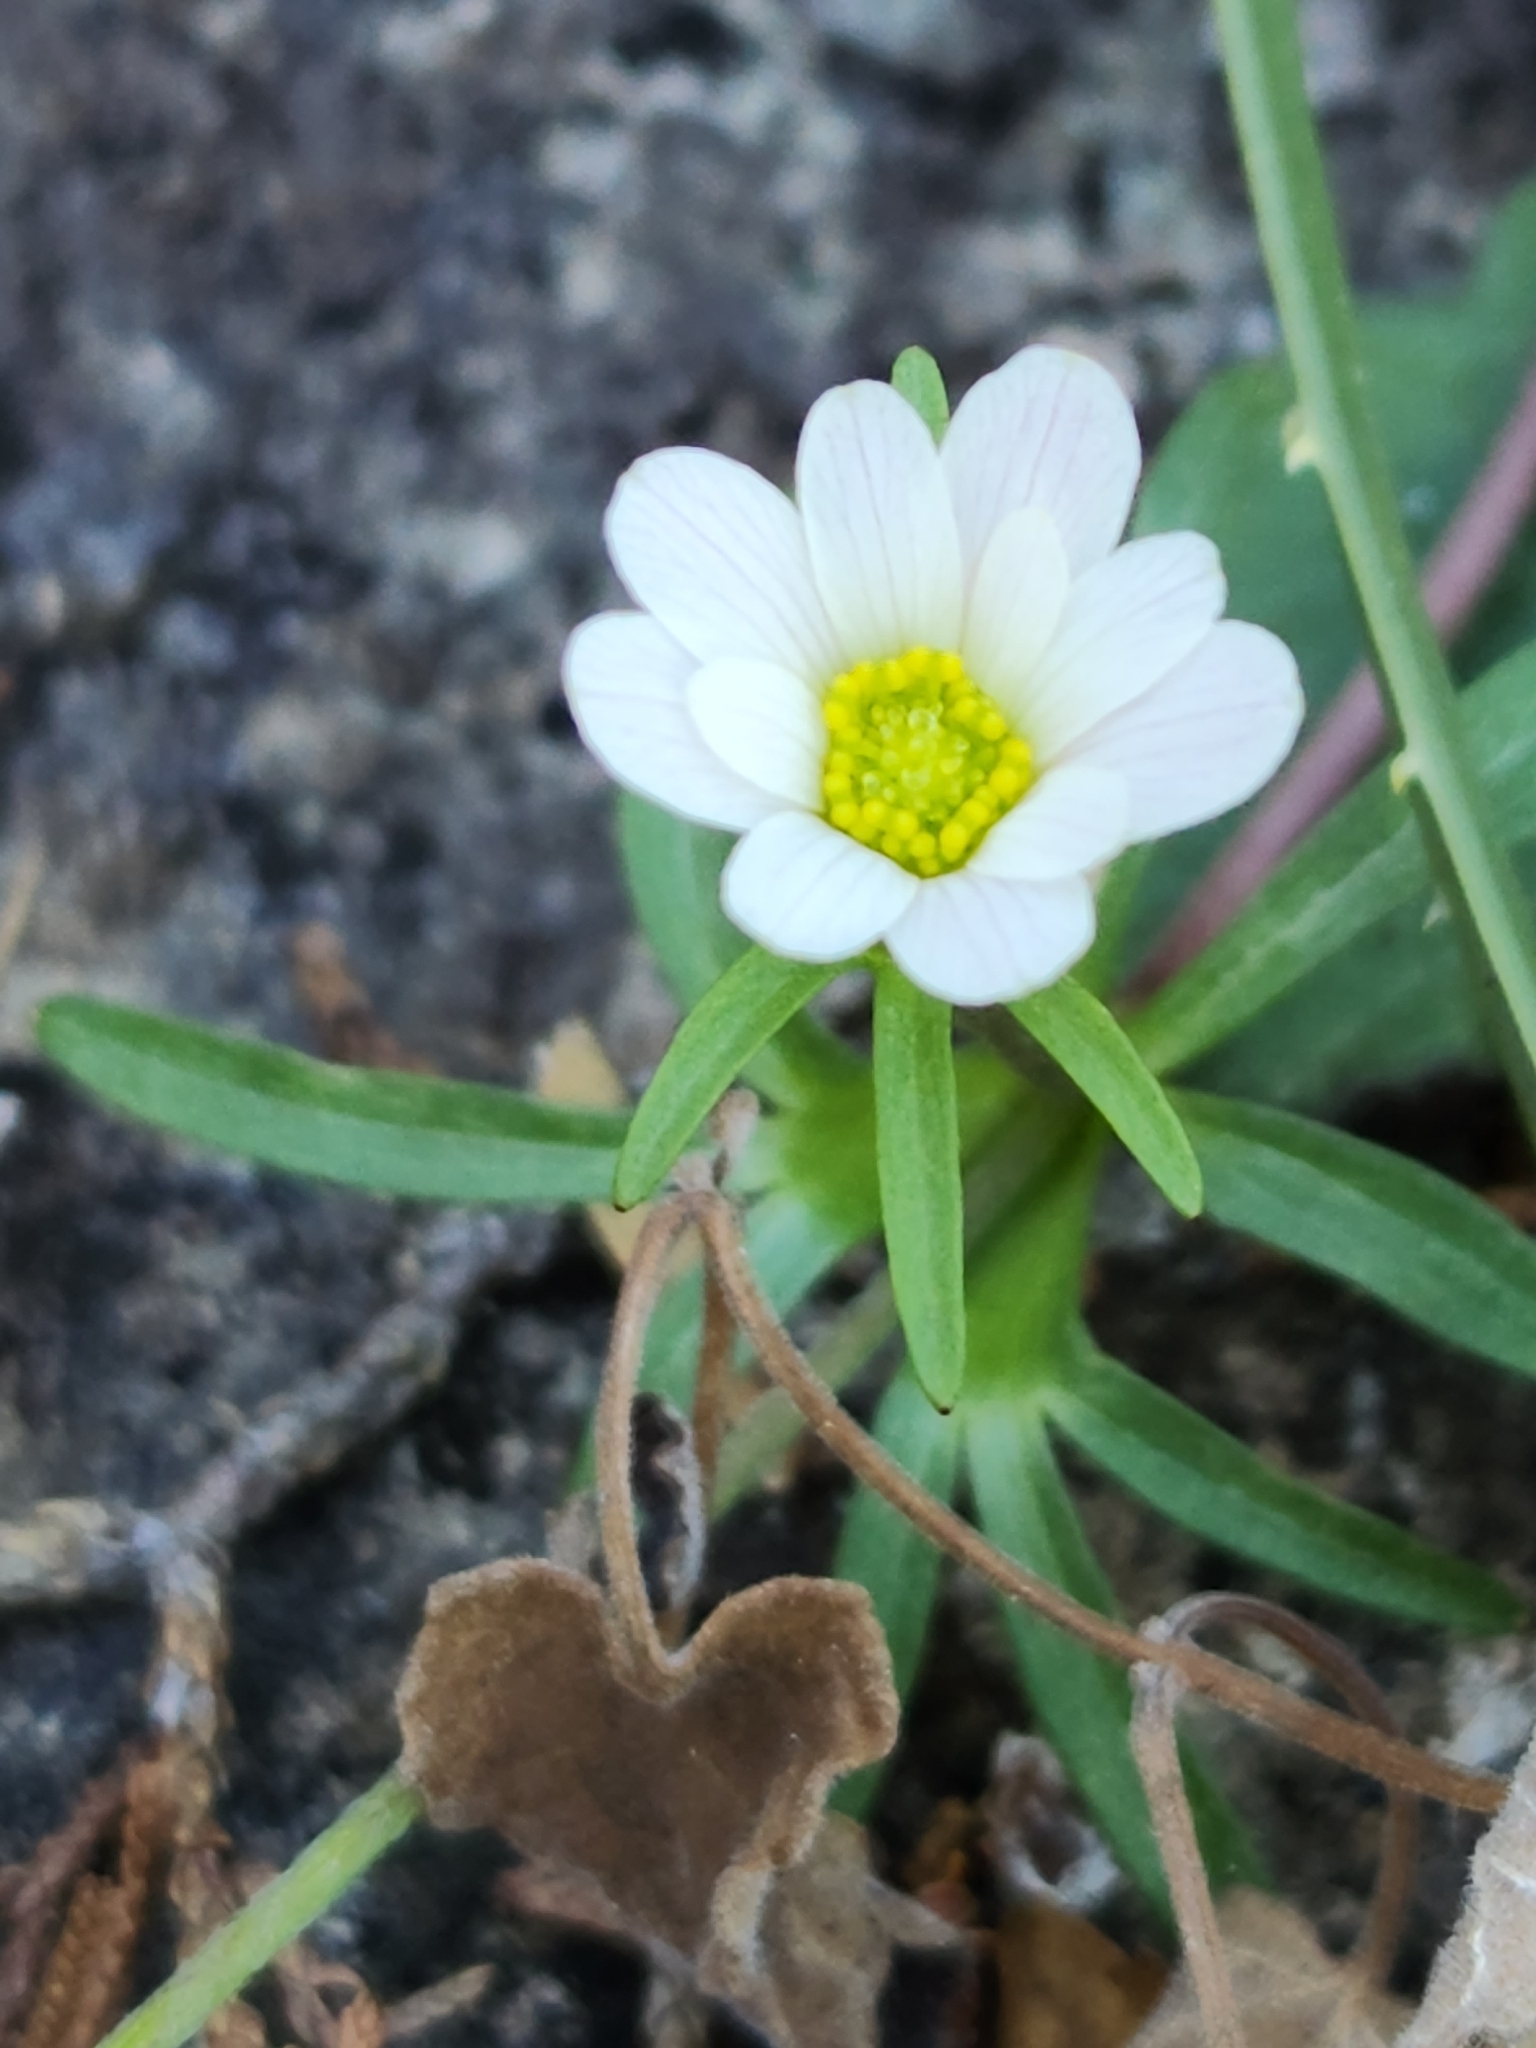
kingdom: Plantae
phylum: Tracheophyta
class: Magnoliopsida
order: Ranunculales
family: Ranunculaceae
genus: Anemone
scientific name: Anemone edwardsiana
